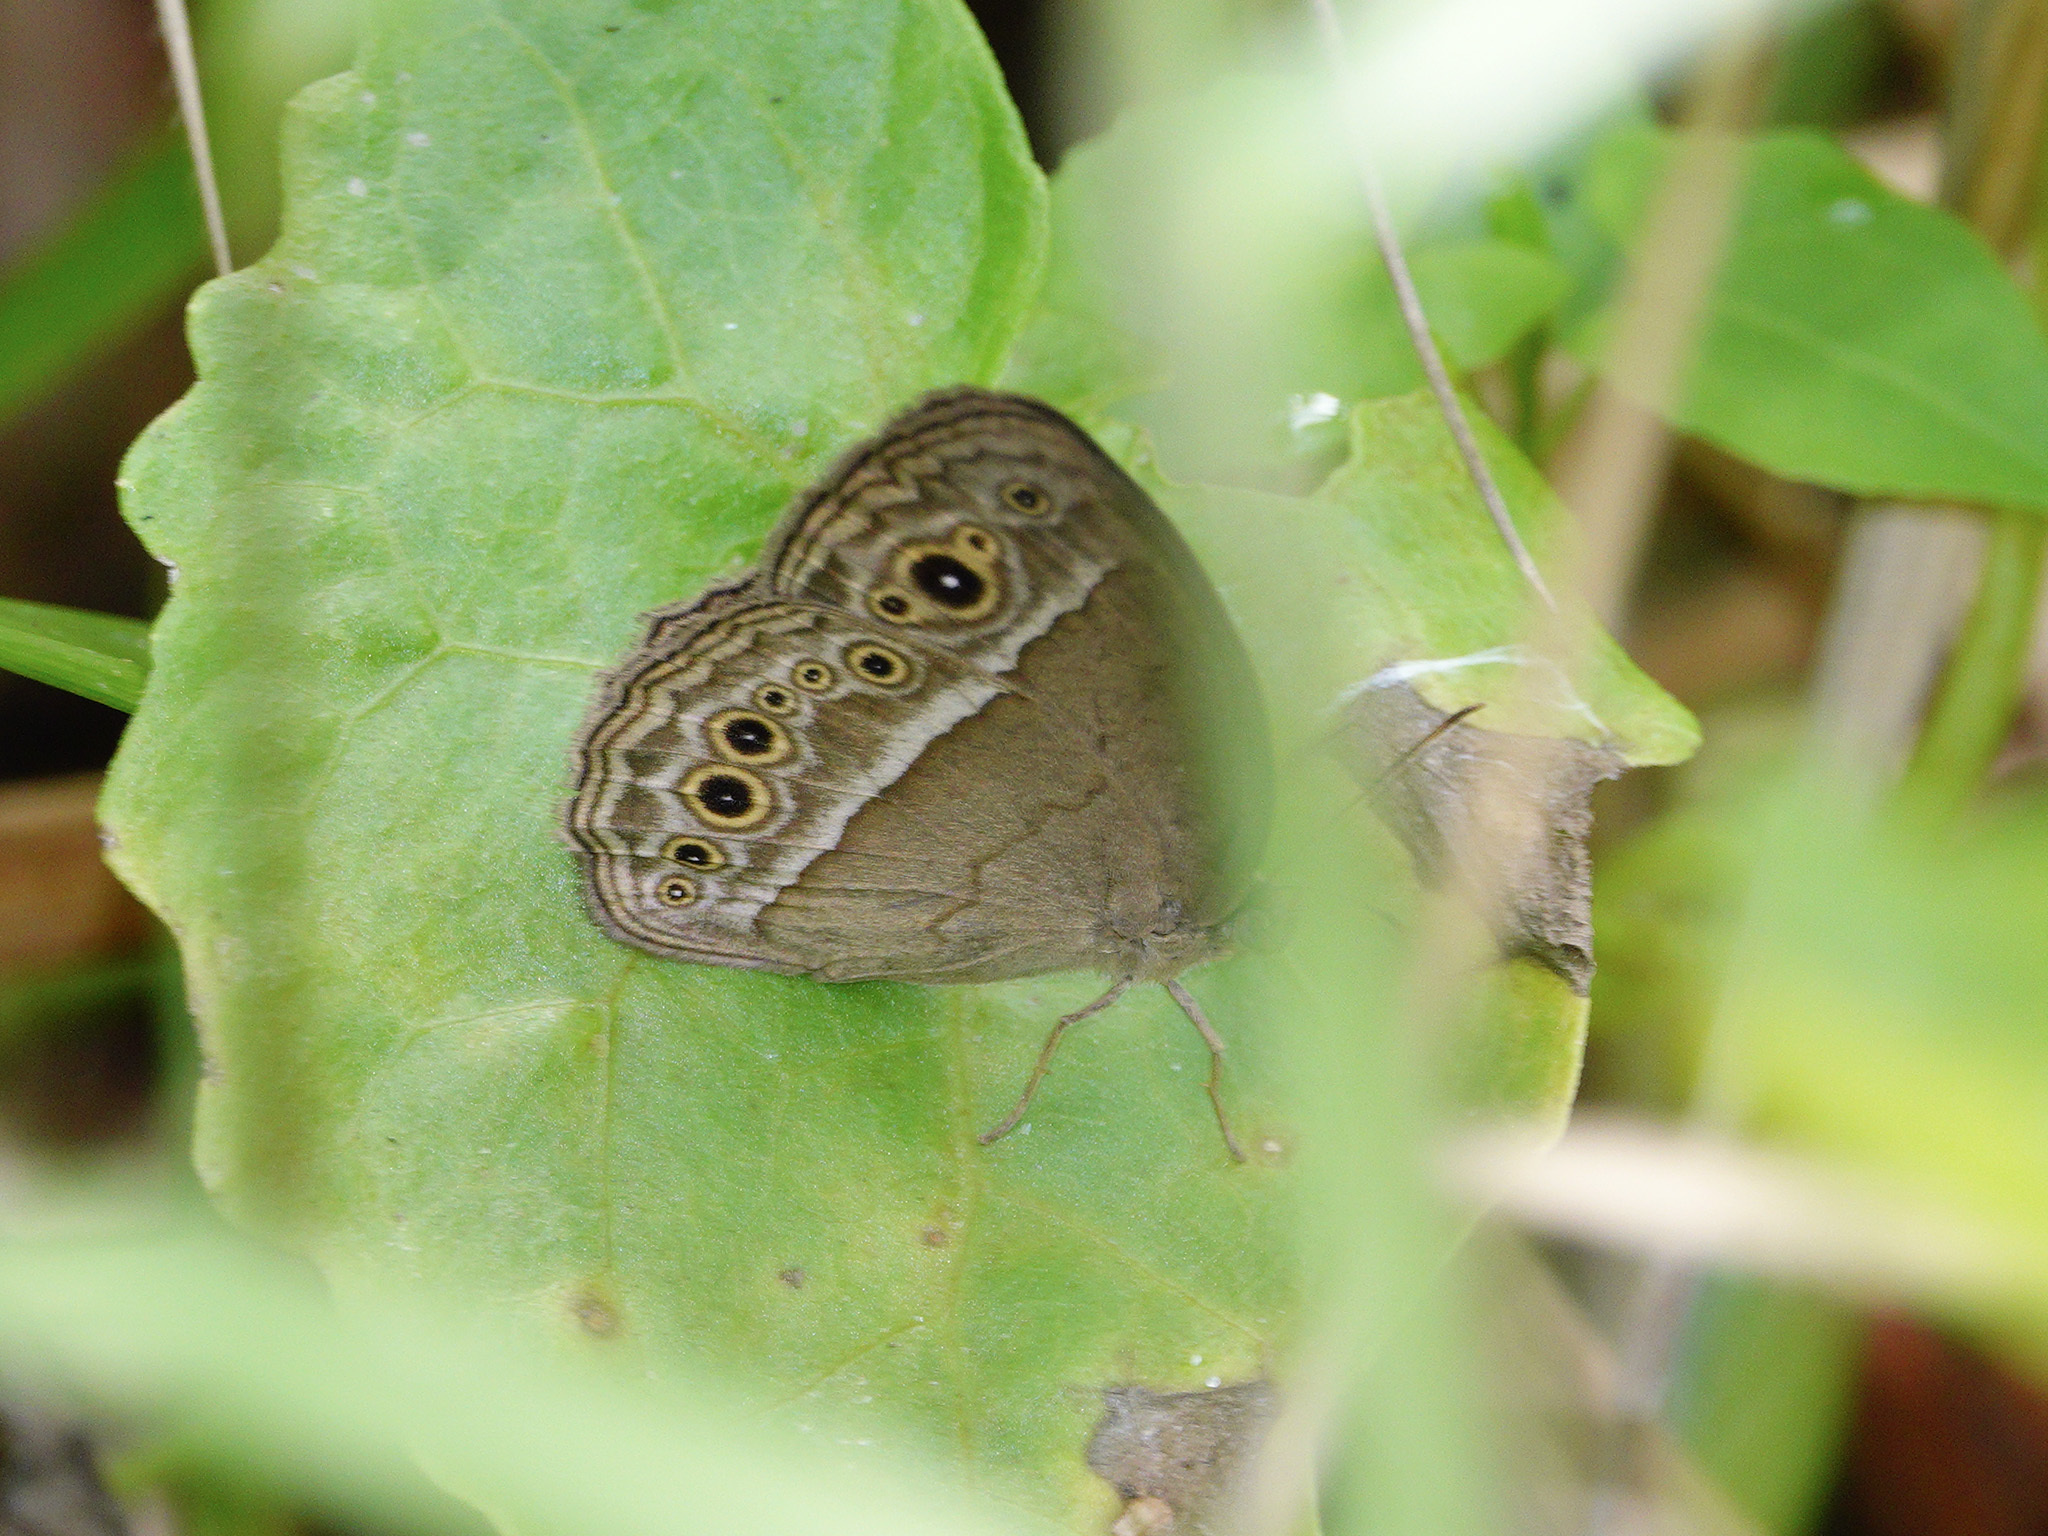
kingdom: Animalia
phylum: Arthropoda
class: Insecta
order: Lepidoptera
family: Nymphalidae
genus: Mycalesis
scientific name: Mycalesis perseoides
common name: Burmese bushbrown
